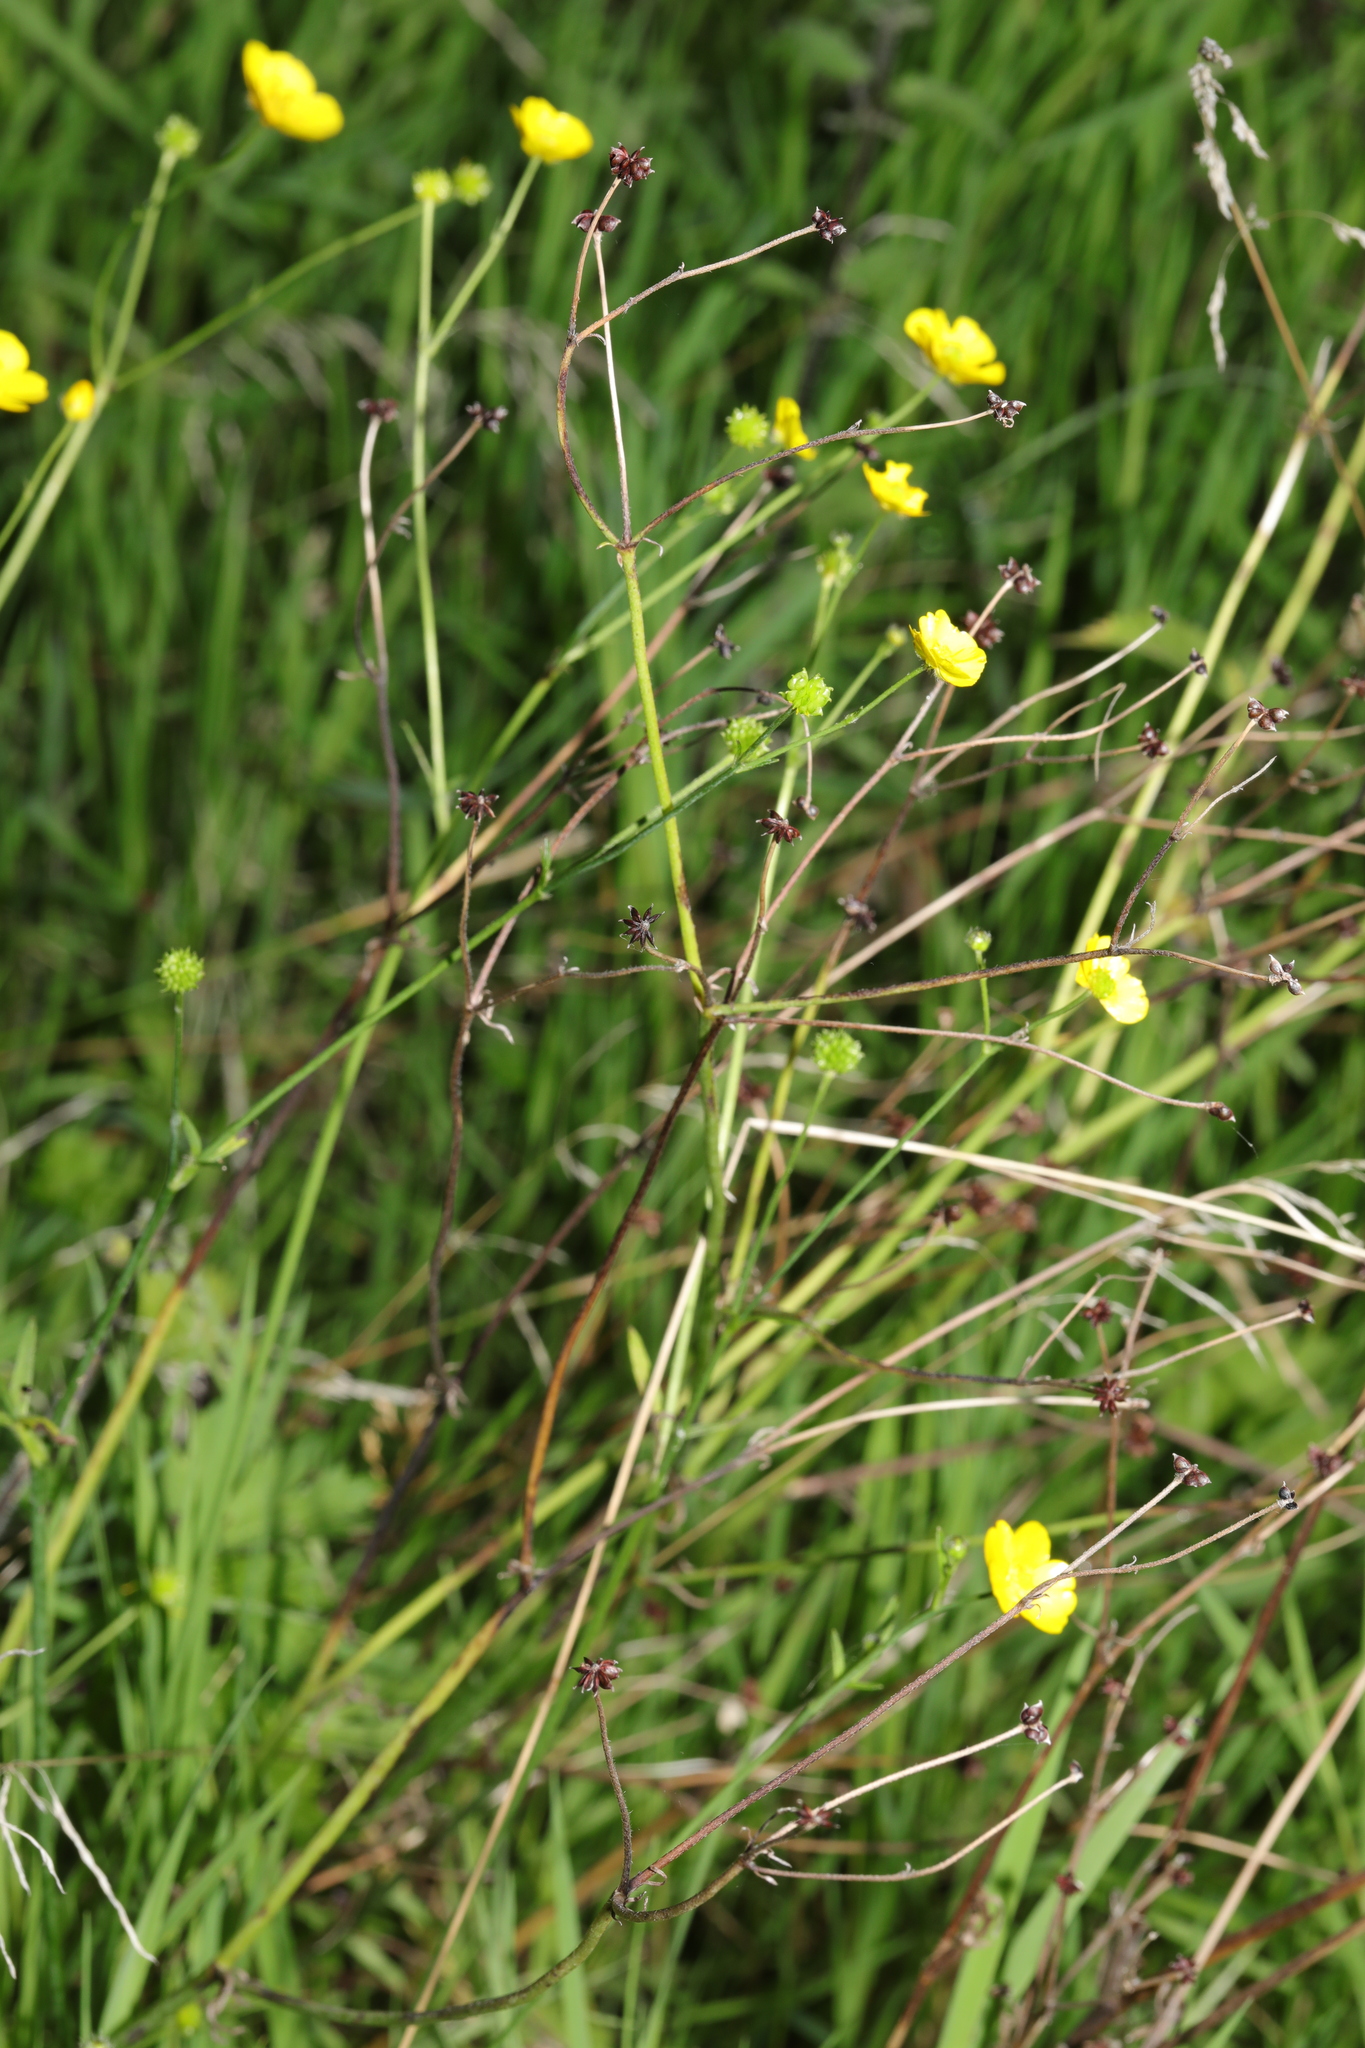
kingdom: Plantae
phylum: Tracheophyta
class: Magnoliopsida
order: Ranunculales
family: Ranunculaceae
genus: Ranunculus
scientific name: Ranunculus acris
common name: Meadow buttercup
